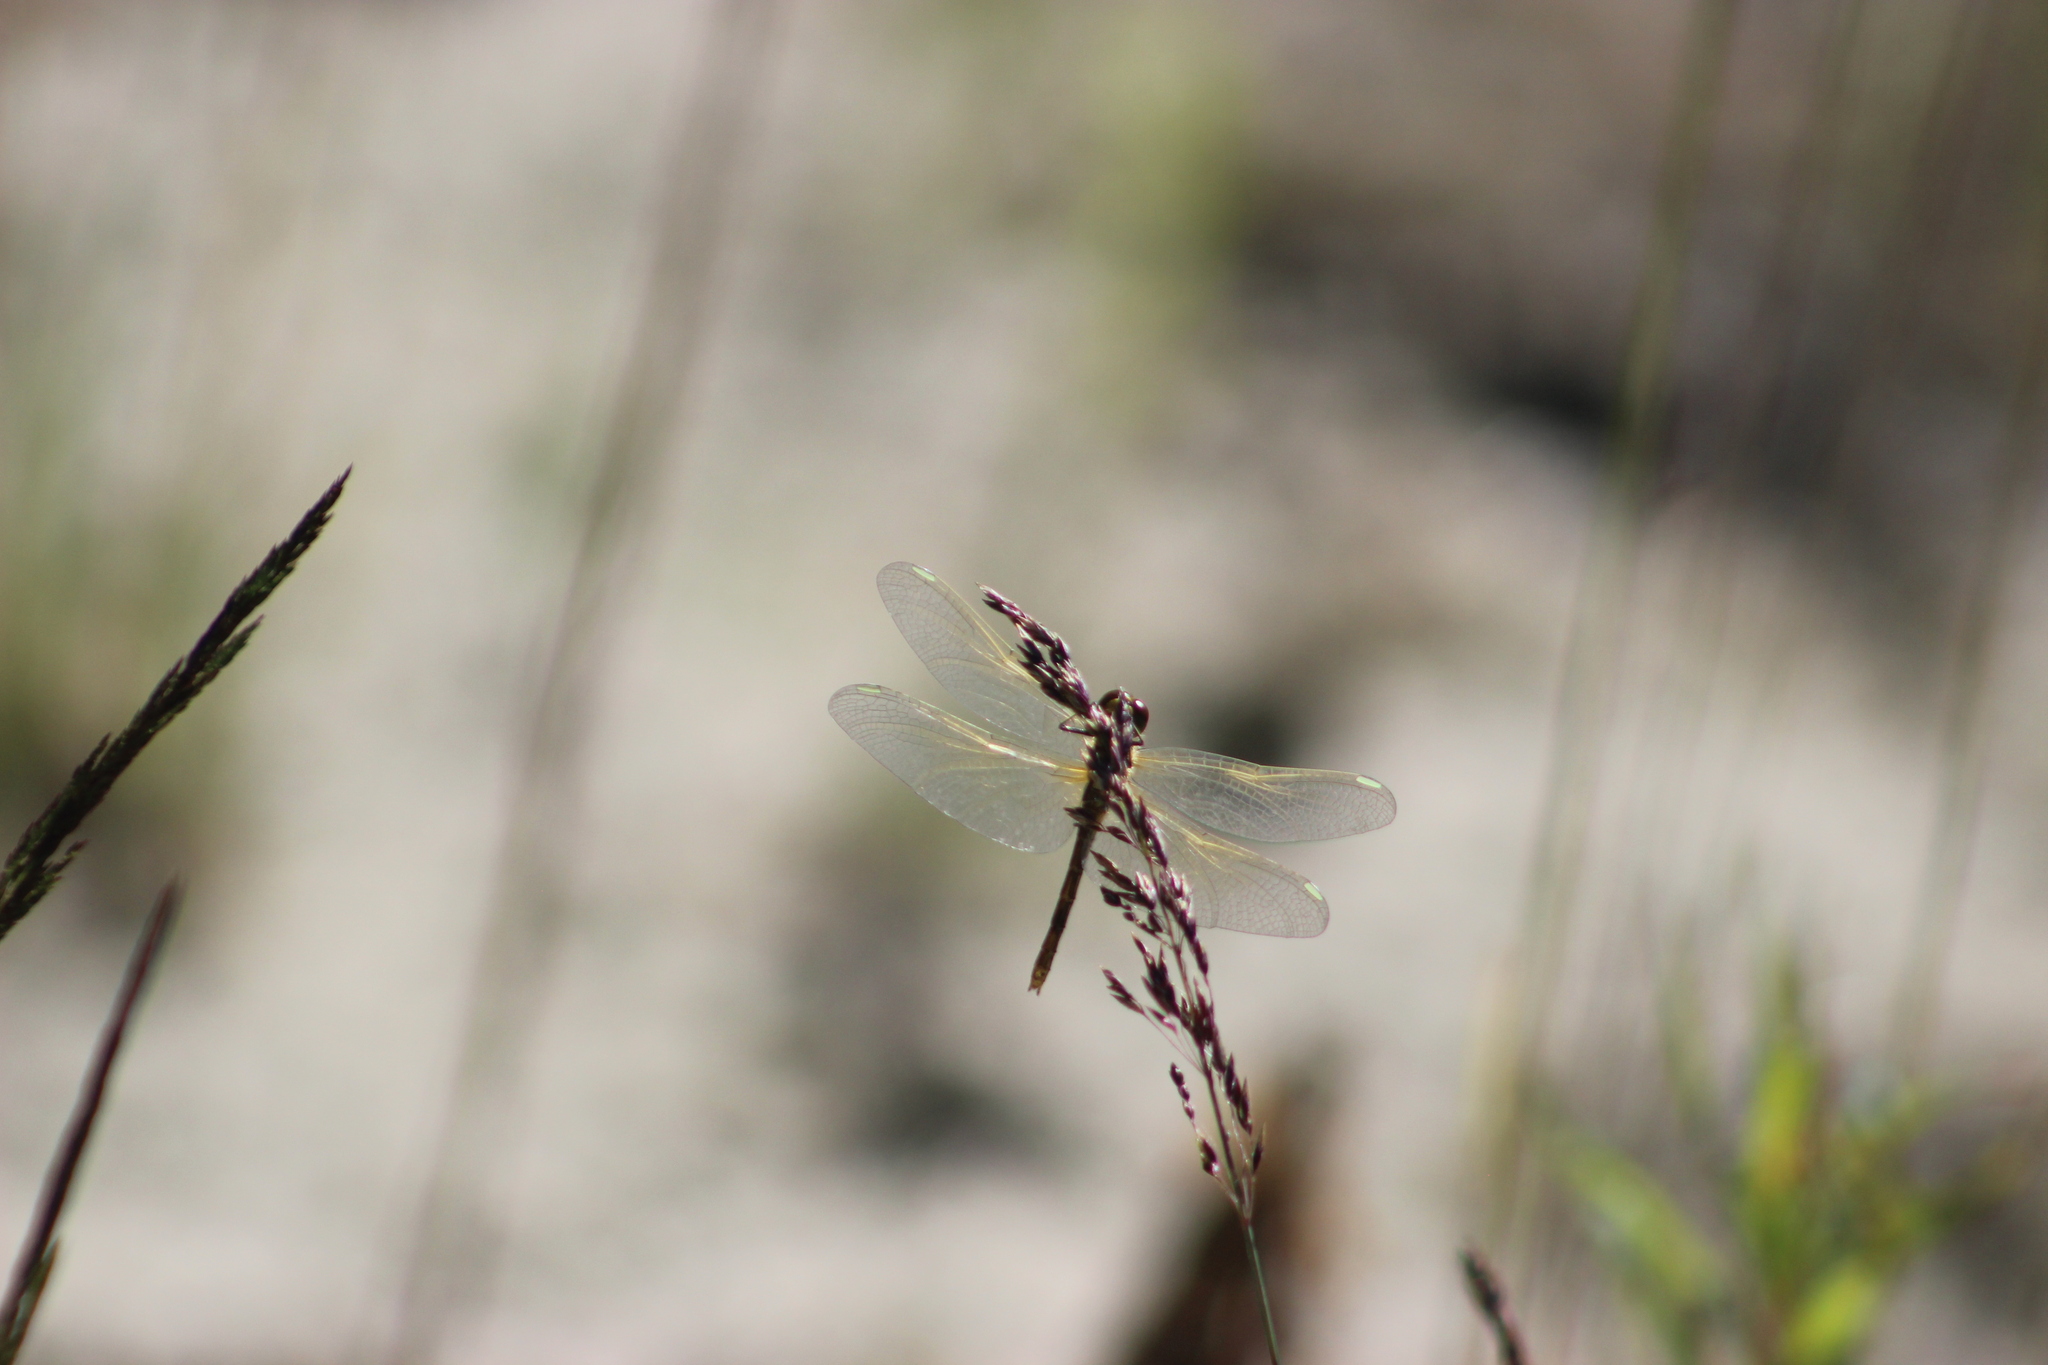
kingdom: Animalia
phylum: Arthropoda
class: Insecta
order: Odonata
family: Libellulidae
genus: Sympetrum
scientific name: Sympetrum flaveolum
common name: Yellow-winged darter
